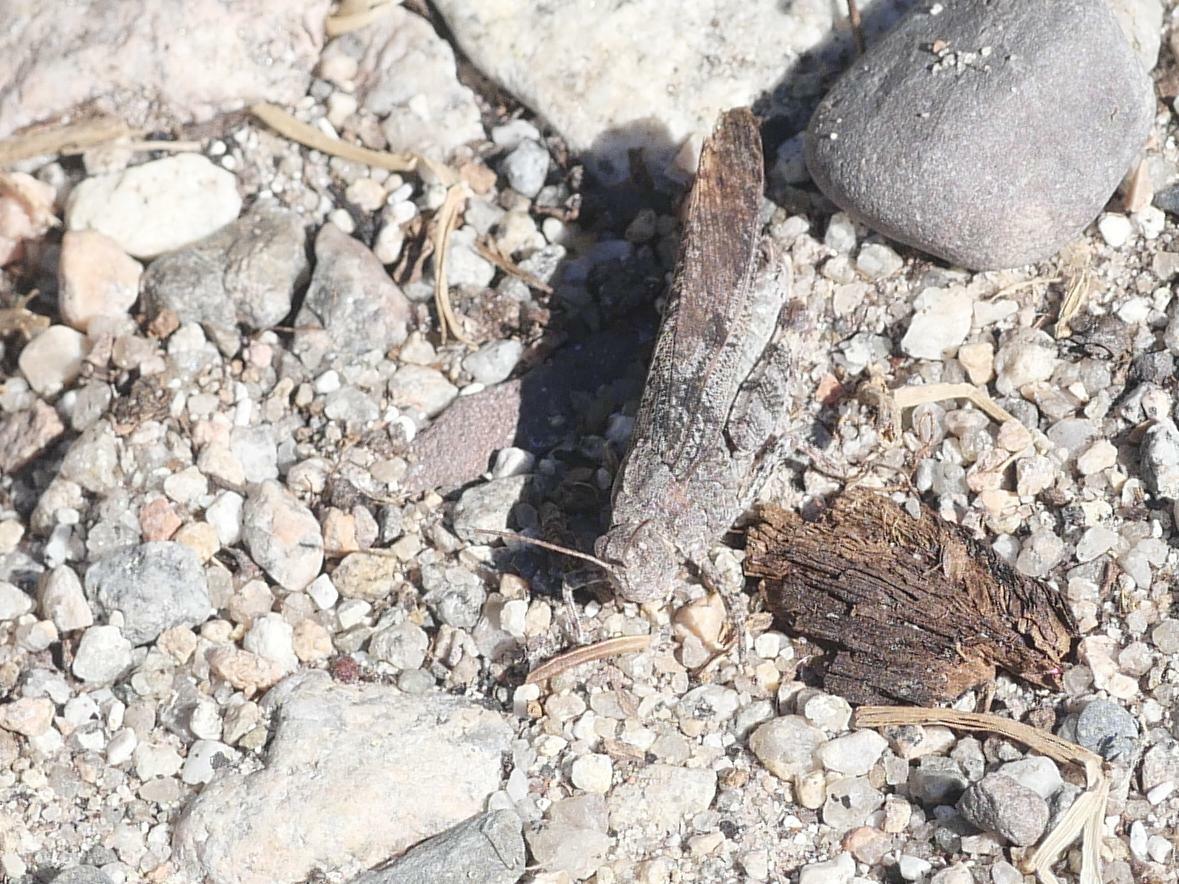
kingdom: Animalia
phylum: Arthropoda
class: Insecta
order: Orthoptera
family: Acrididae
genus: Dissosteira
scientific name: Dissosteira carolina
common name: Carolina grasshopper
